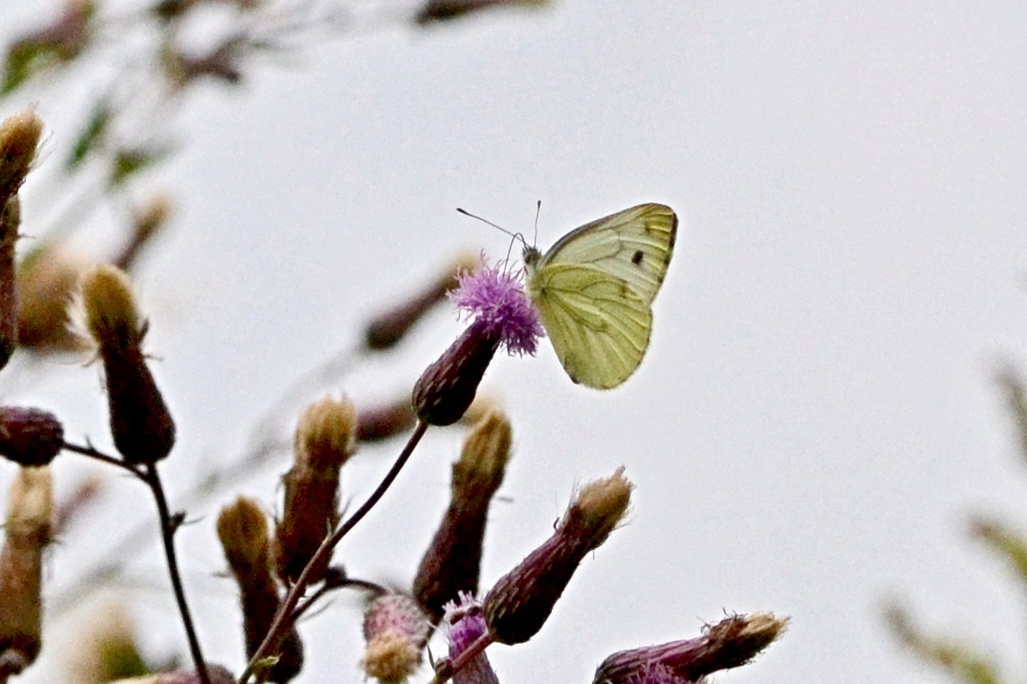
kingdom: Animalia
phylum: Arthropoda
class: Insecta
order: Lepidoptera
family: Pieridae
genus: Pieris
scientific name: Pieris napi
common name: Green-veined white
